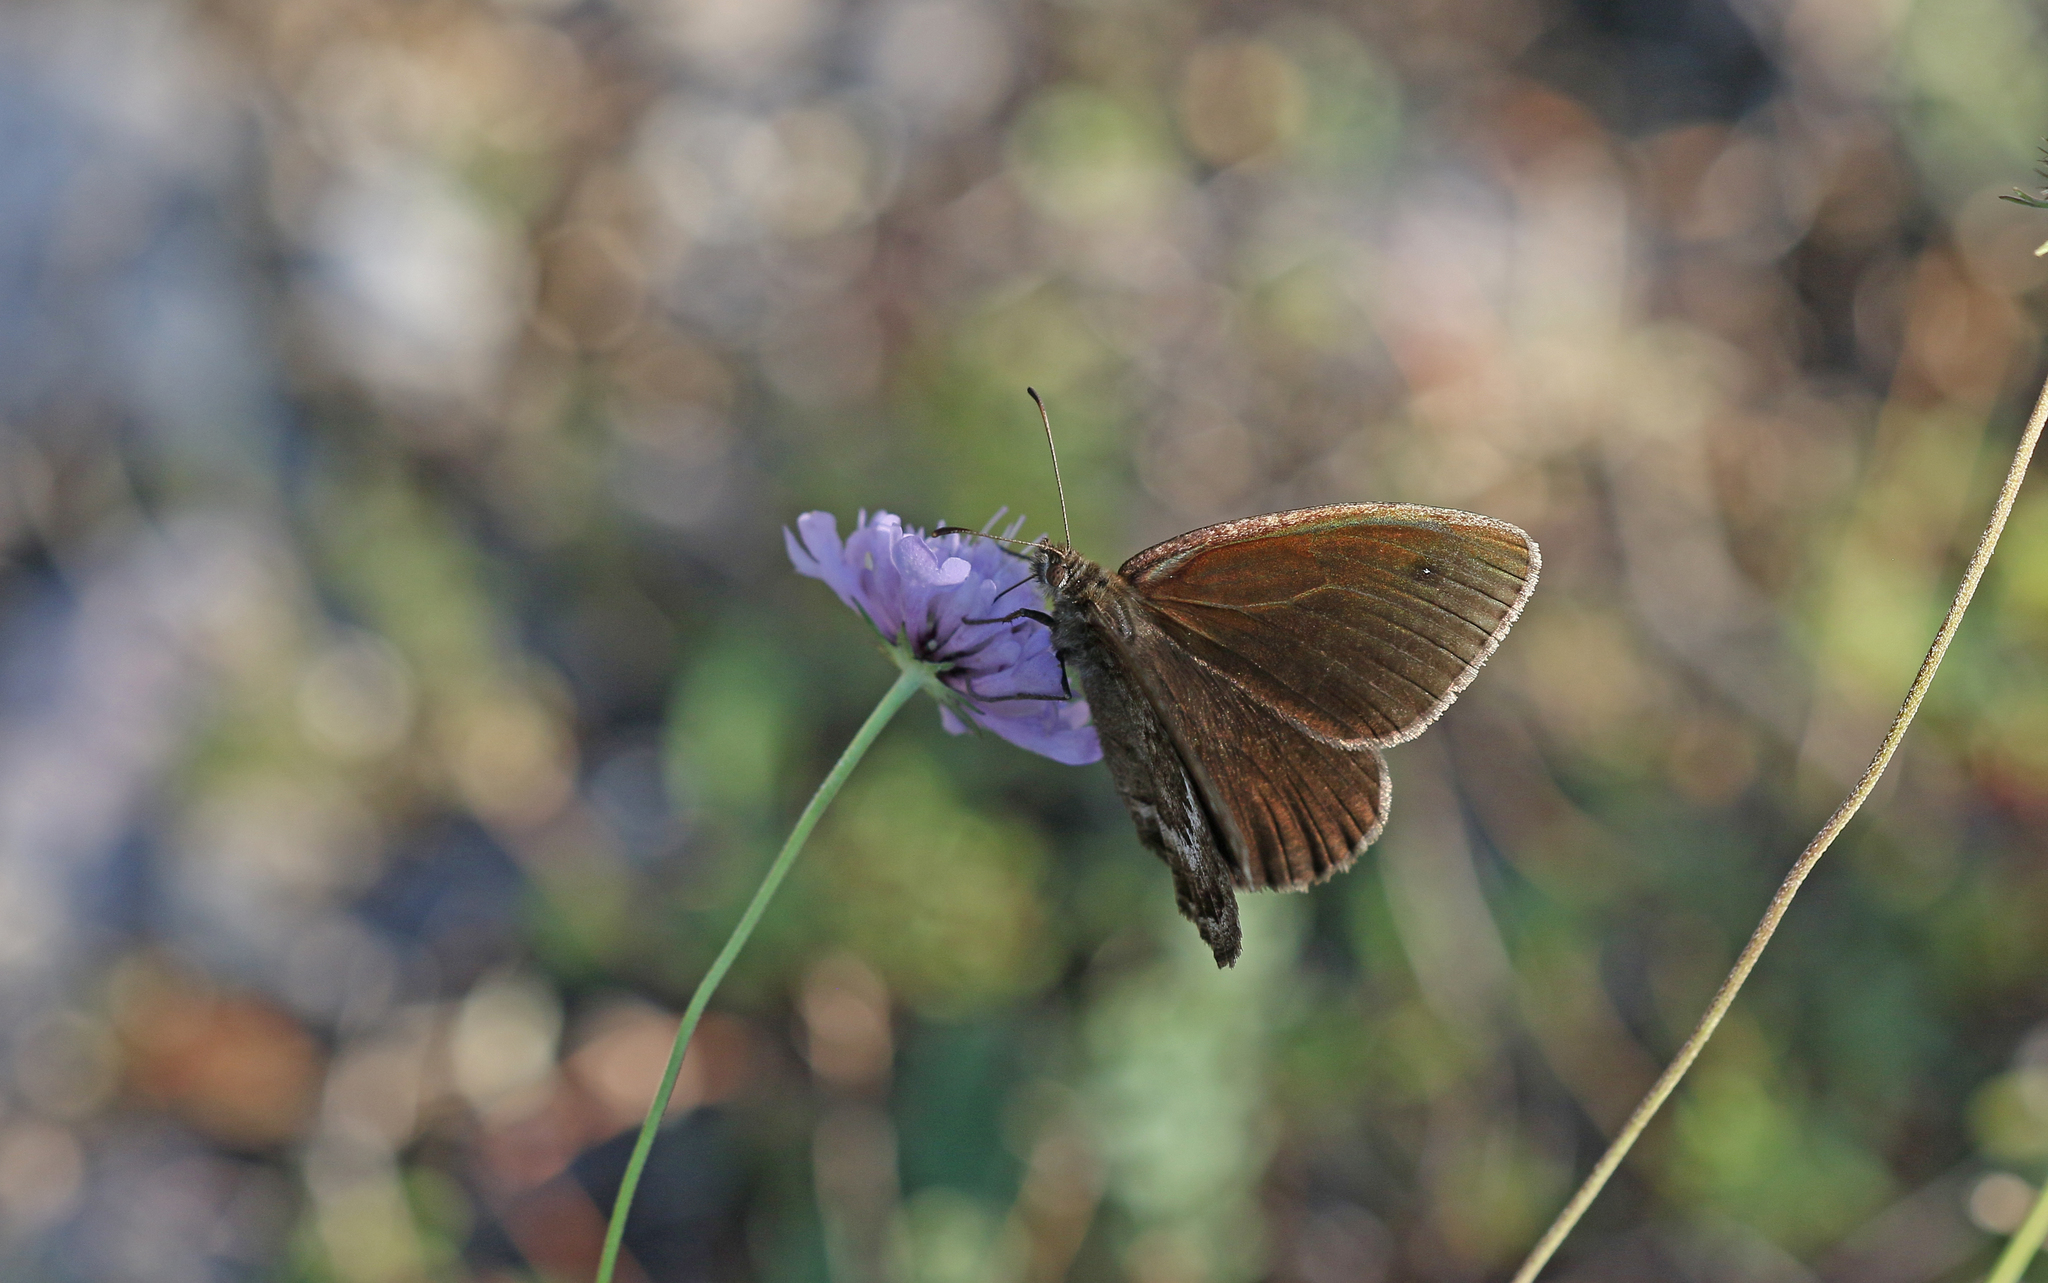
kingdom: Animalia
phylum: Arthropoda
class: Insecta
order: Lepidoptera
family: Nymphalidae
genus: Satyrus
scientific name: Satyrus actaea
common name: Black satyr
